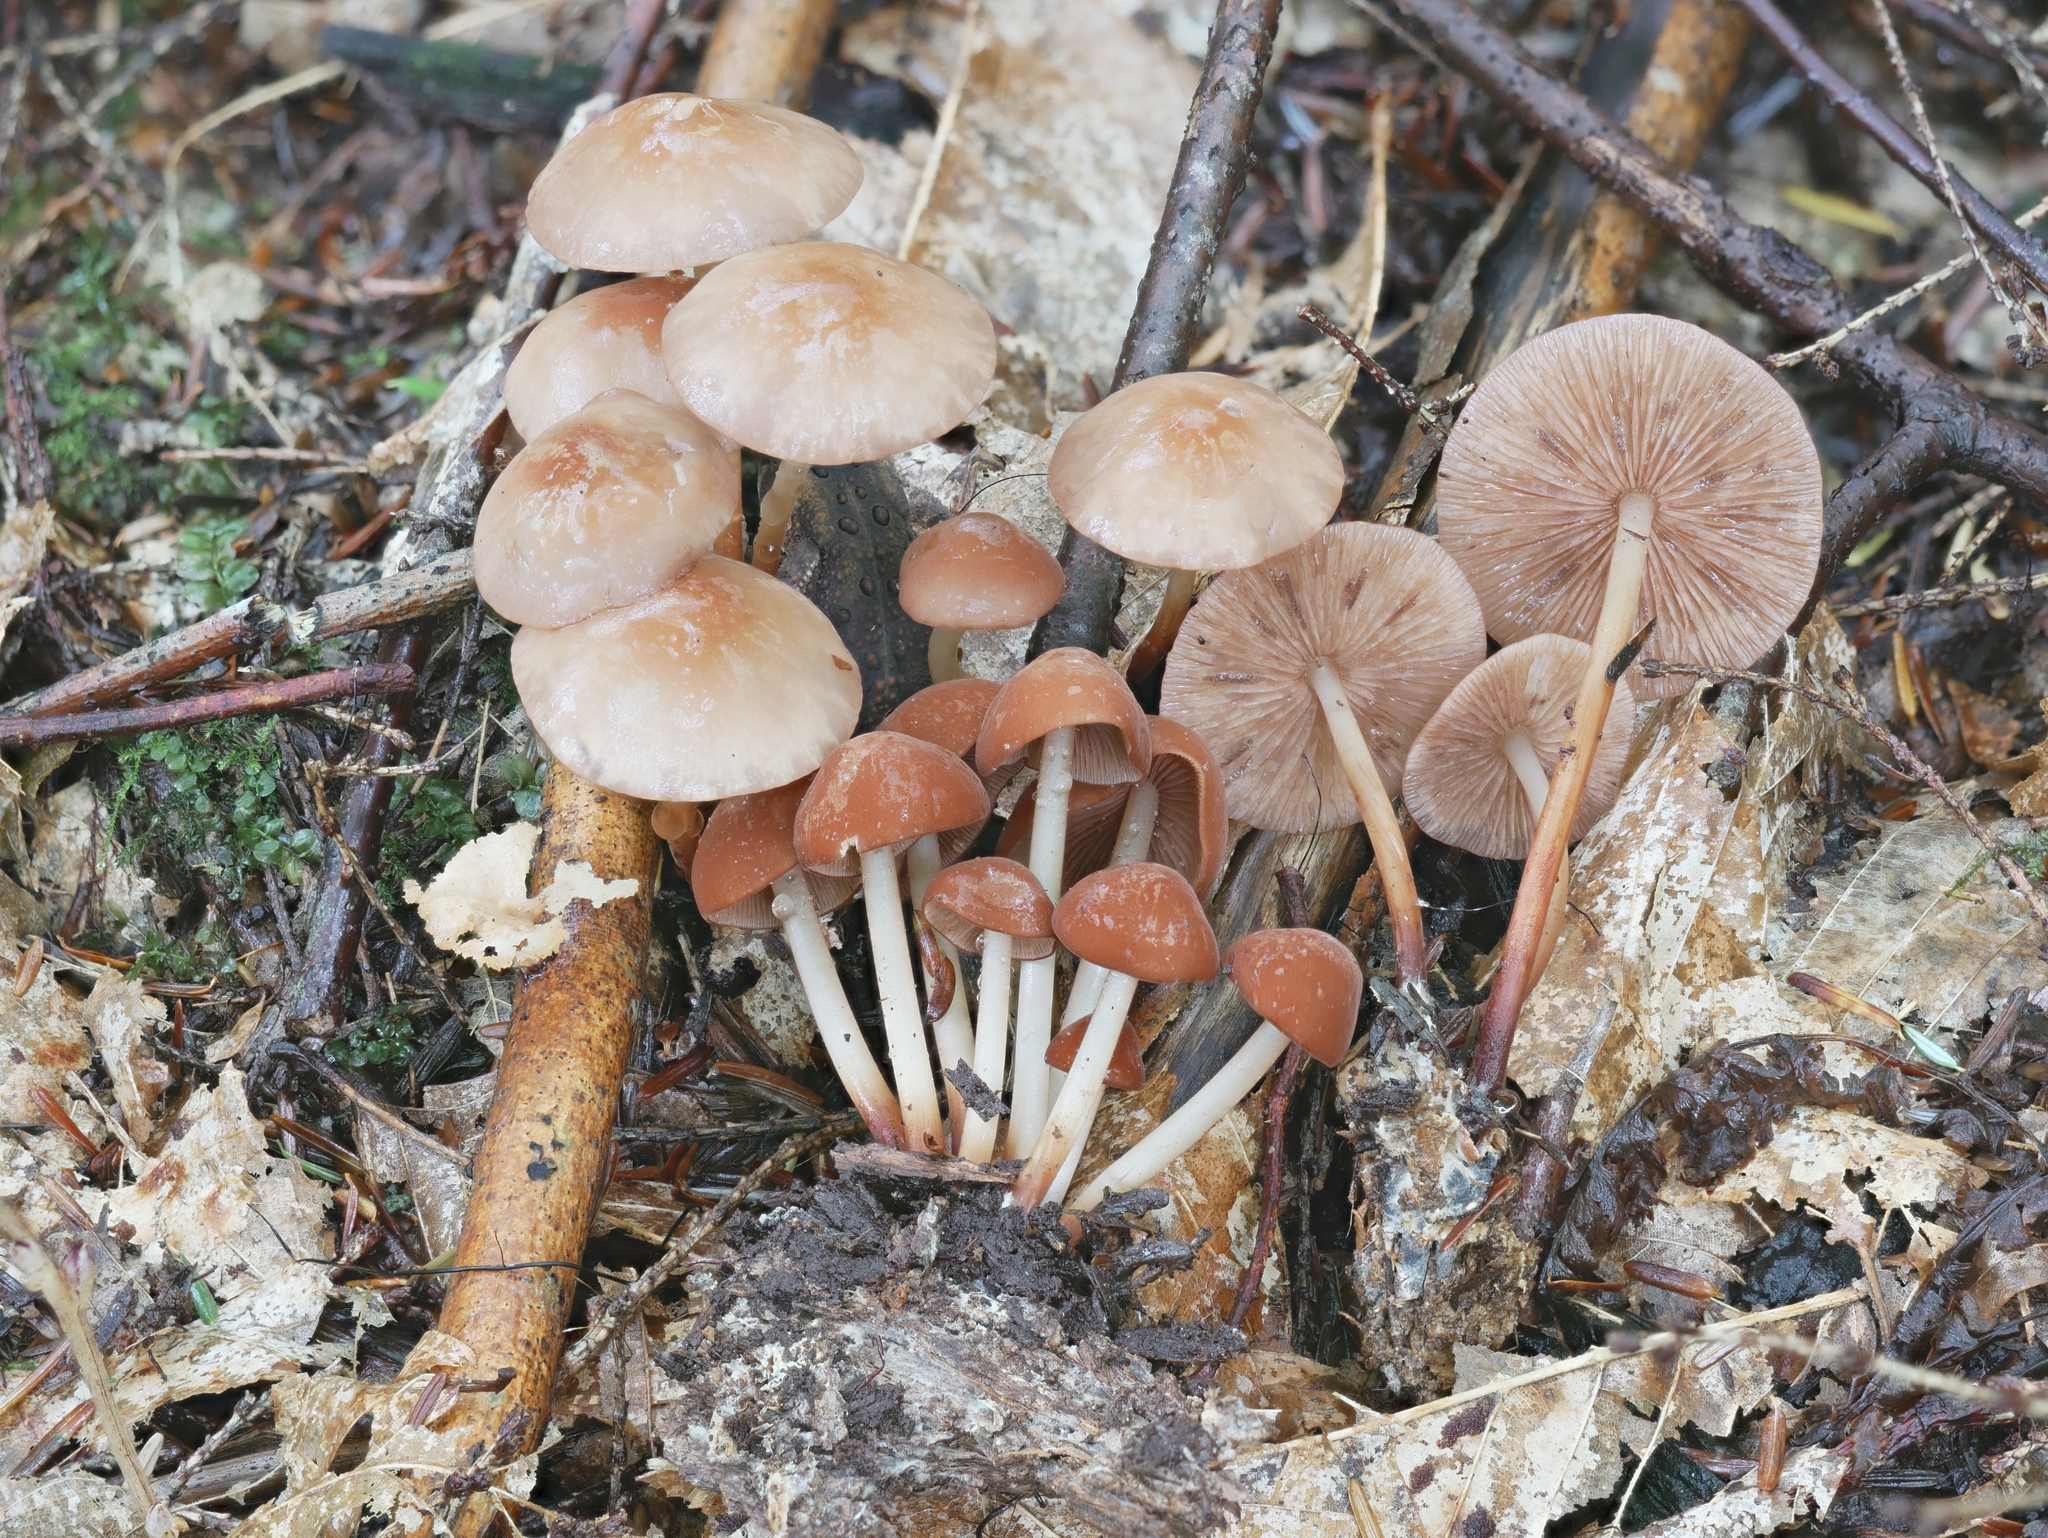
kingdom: Fungi
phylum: Basidiomycota
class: Agaricomycetes
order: Agaricales
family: Omphalotaceae
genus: Gymnopus
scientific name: Gymnopus lachnophyllus
